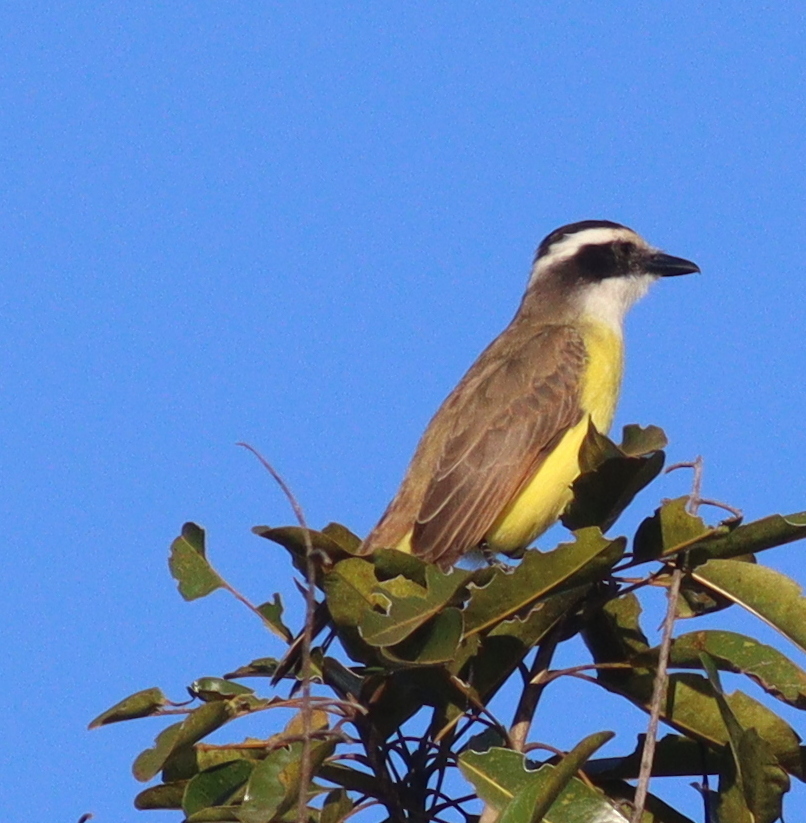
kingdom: Animalia
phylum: Chordata
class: Aves
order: Passeriformes
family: Tyrannidae
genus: Pitangus
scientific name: Pitangus sulphuratus
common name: Great kiskadee
